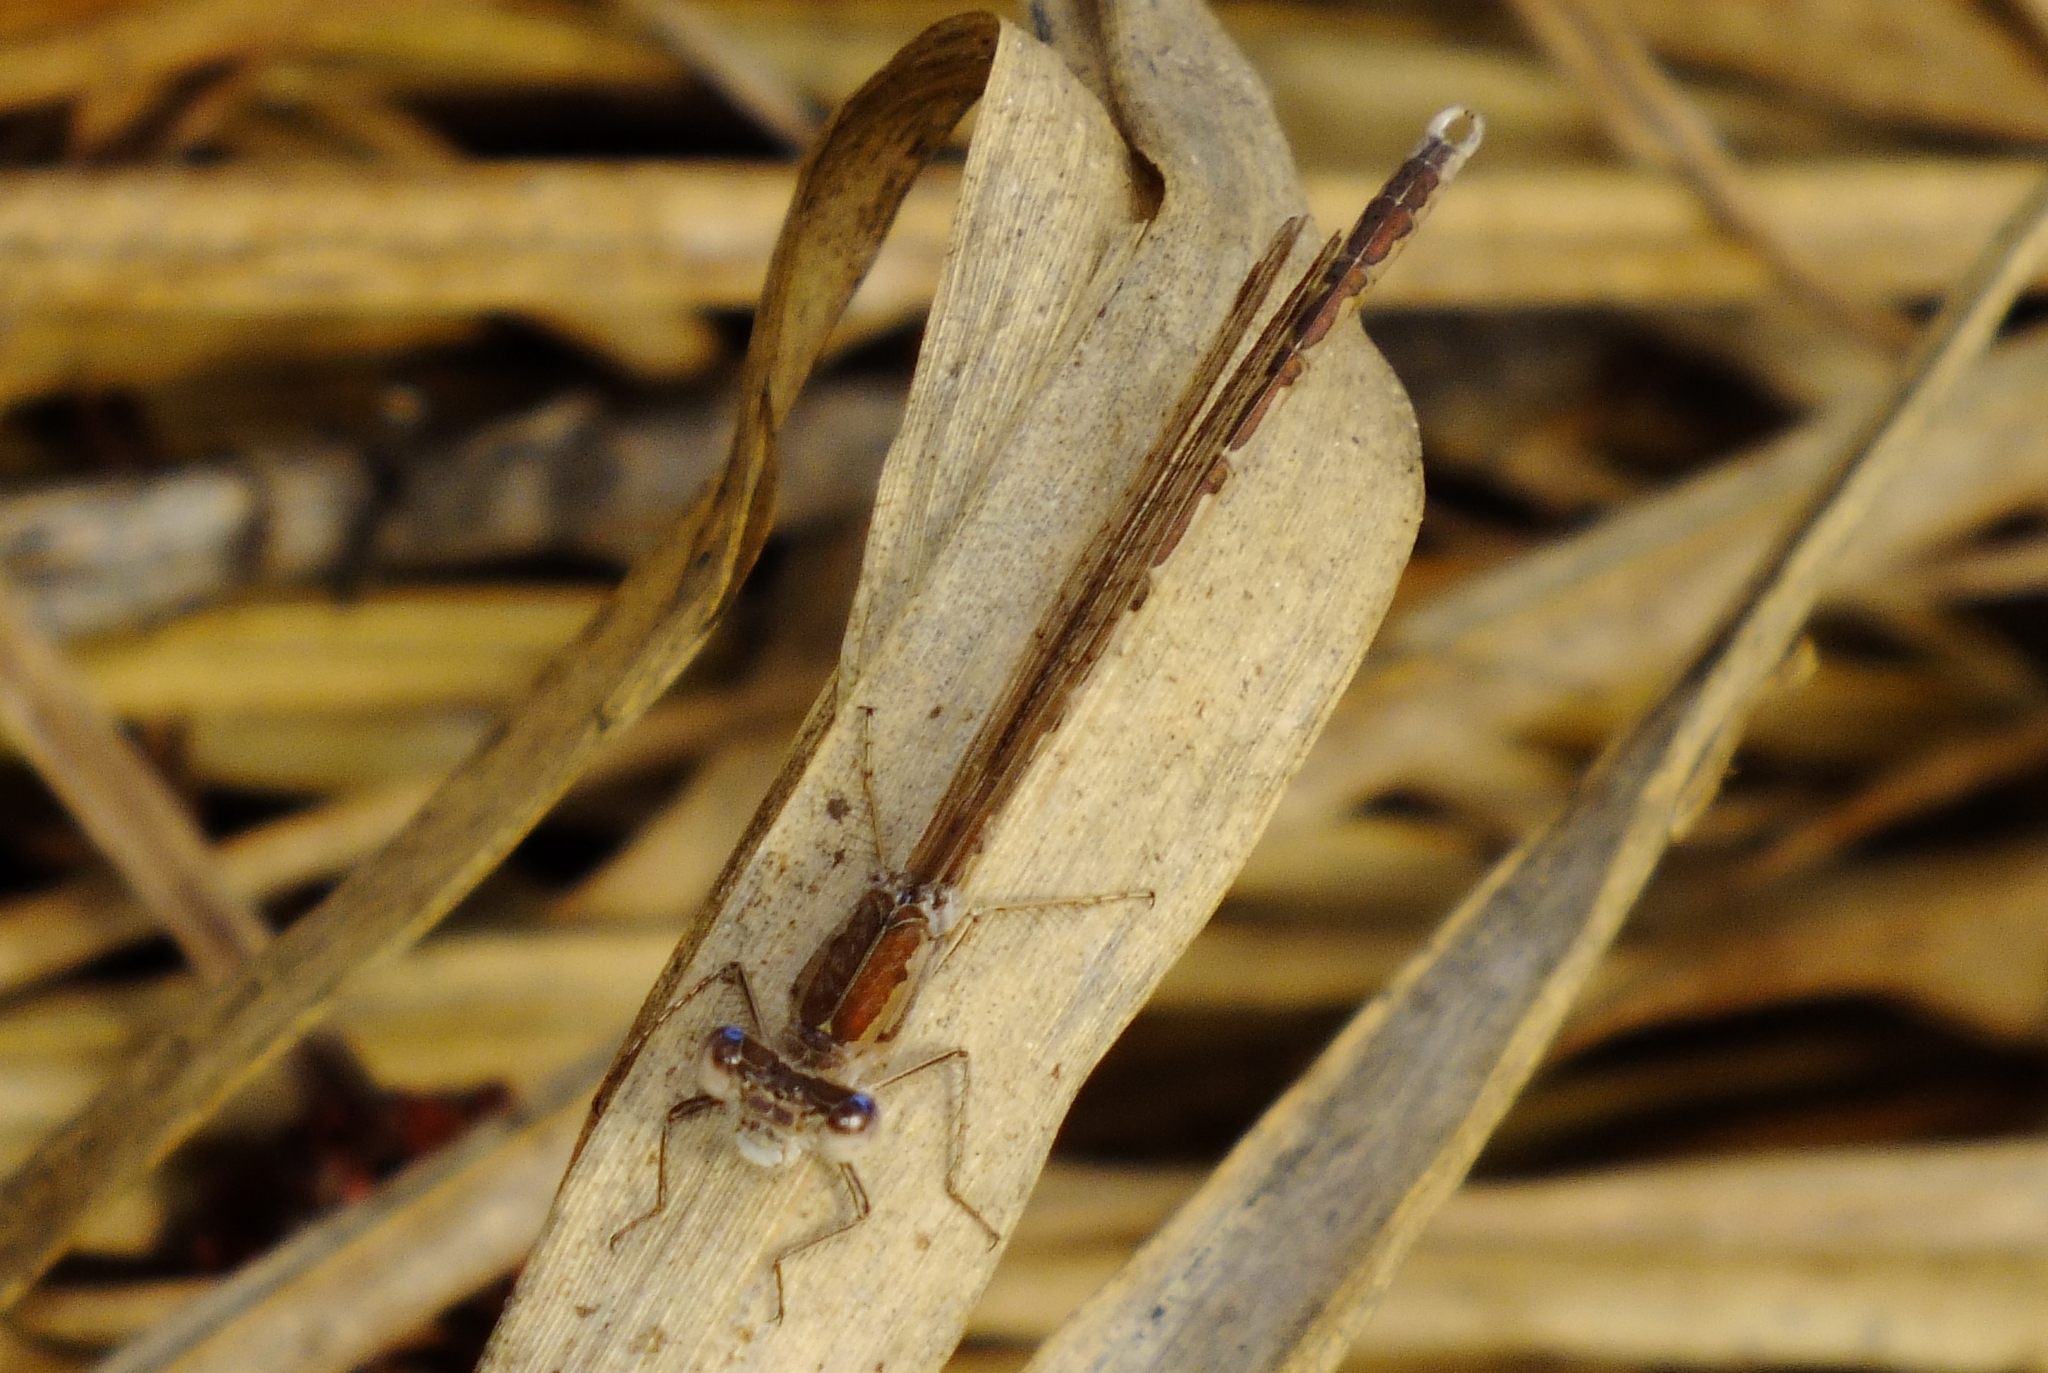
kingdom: Animalia
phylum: Arthropoda
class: Insecta
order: Odonata
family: Lestidae
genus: Sympecma
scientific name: Sympecma paedisca
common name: Siberian winter damsel
